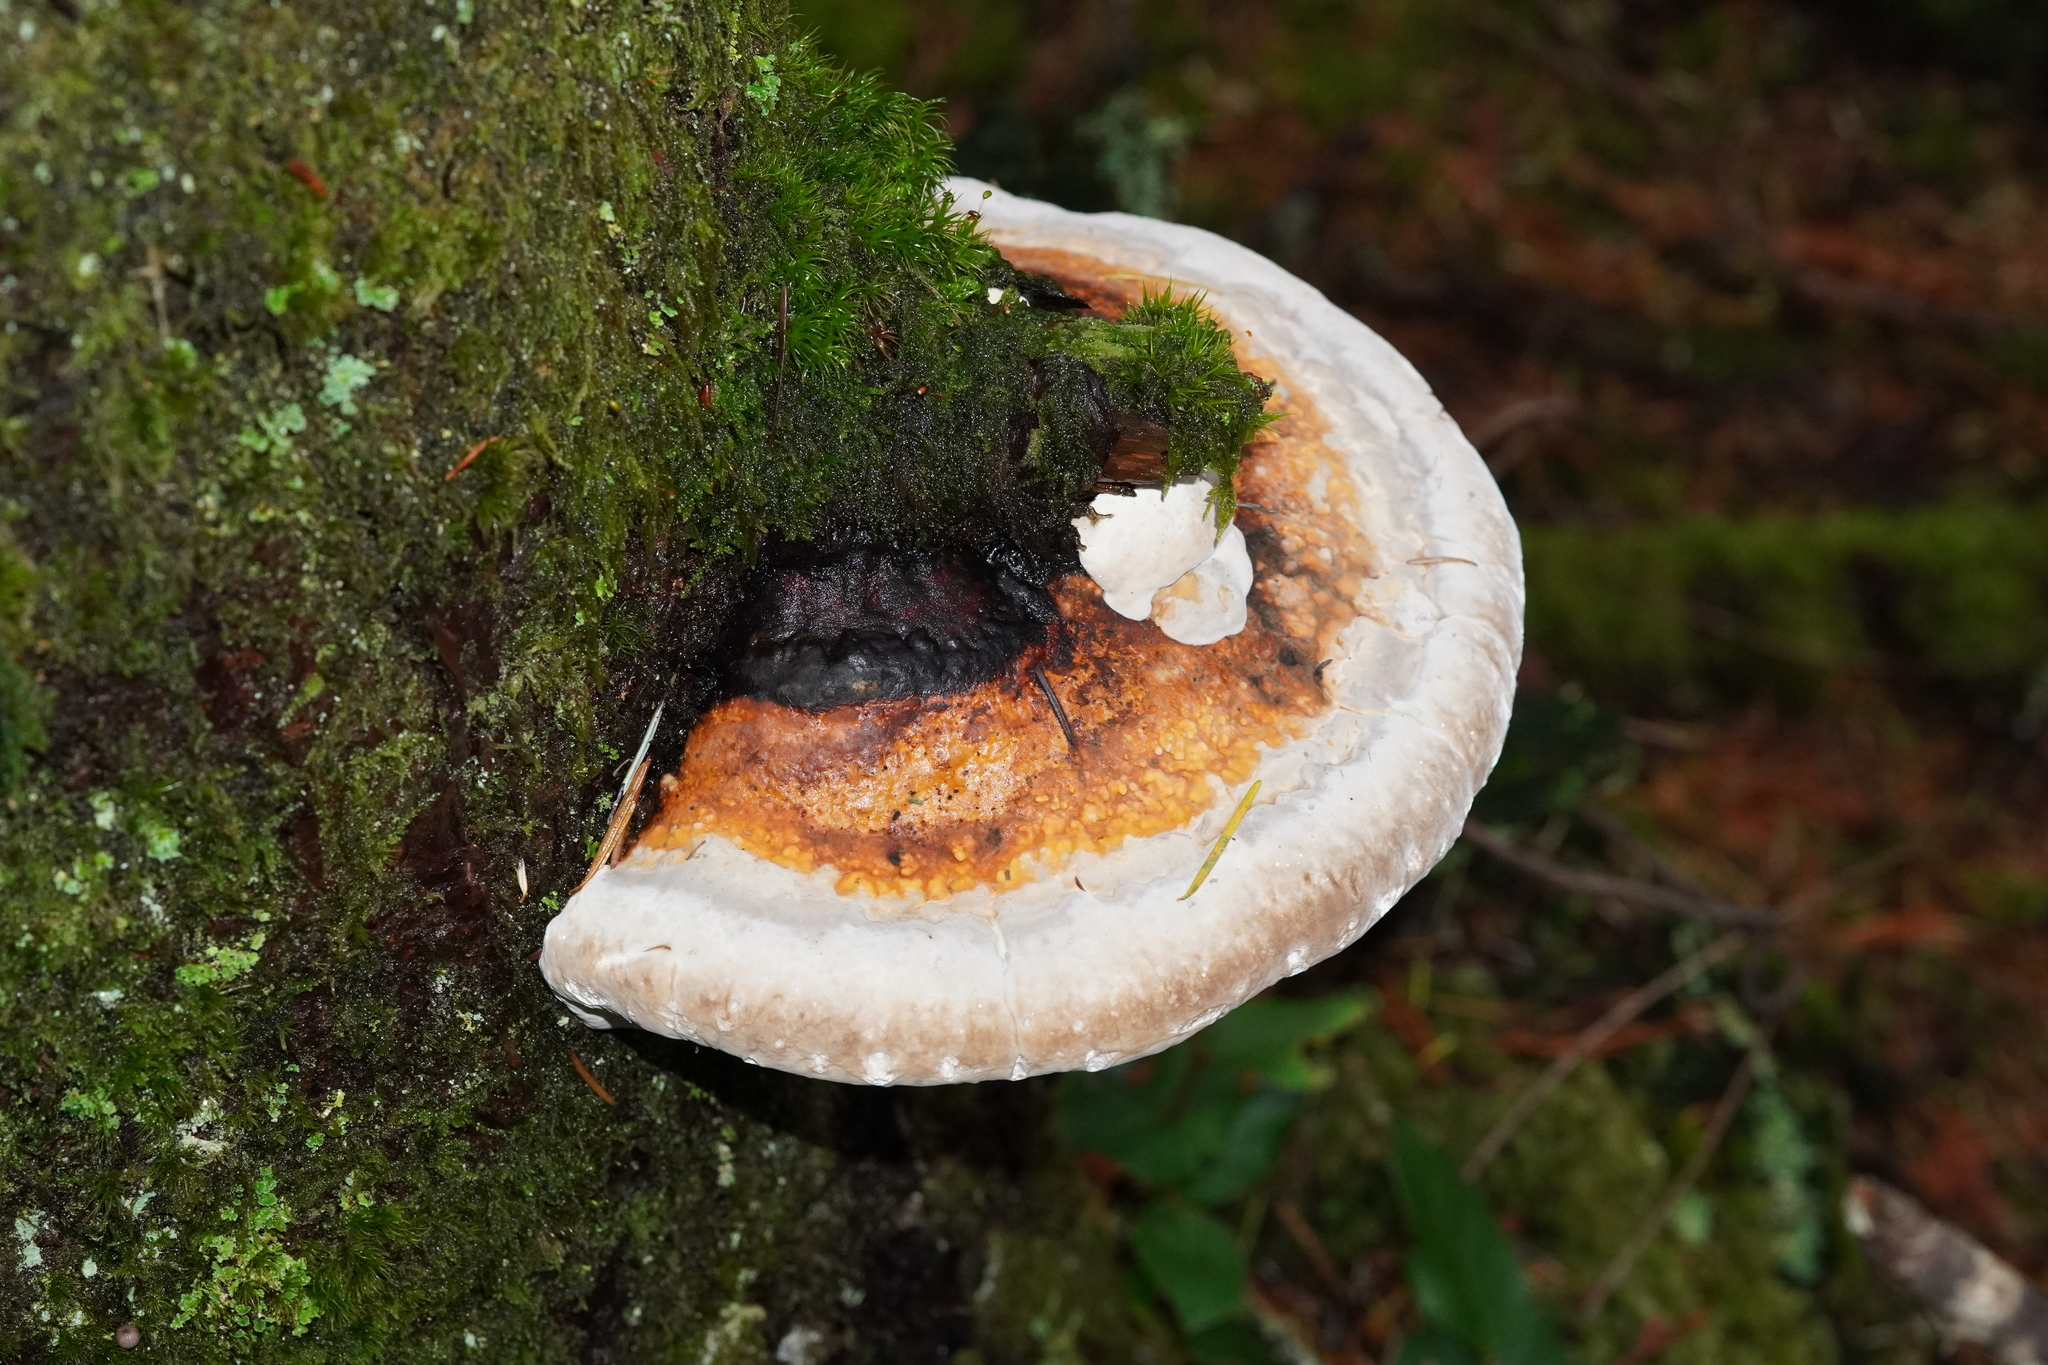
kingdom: Fungi
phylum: Basidiomycota
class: Agaricomycetes
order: Polyporales
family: Fomitopsidaceae
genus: Fomitopsis
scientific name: Fomitopsis mounceae
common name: Northern red belt
